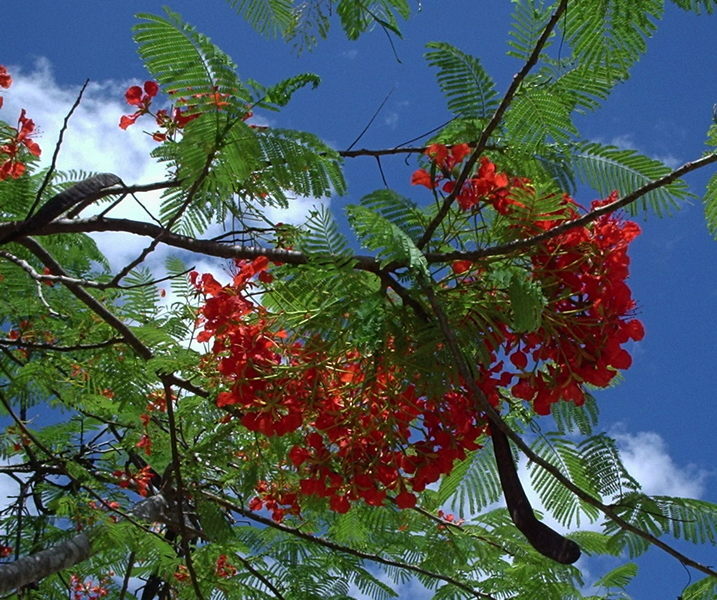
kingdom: Plantae
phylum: Tracheophyta
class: Magnoliopsida
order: Fabales
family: Fabaceae
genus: Delonix
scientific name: Delonix regia
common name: Royal poinciana
